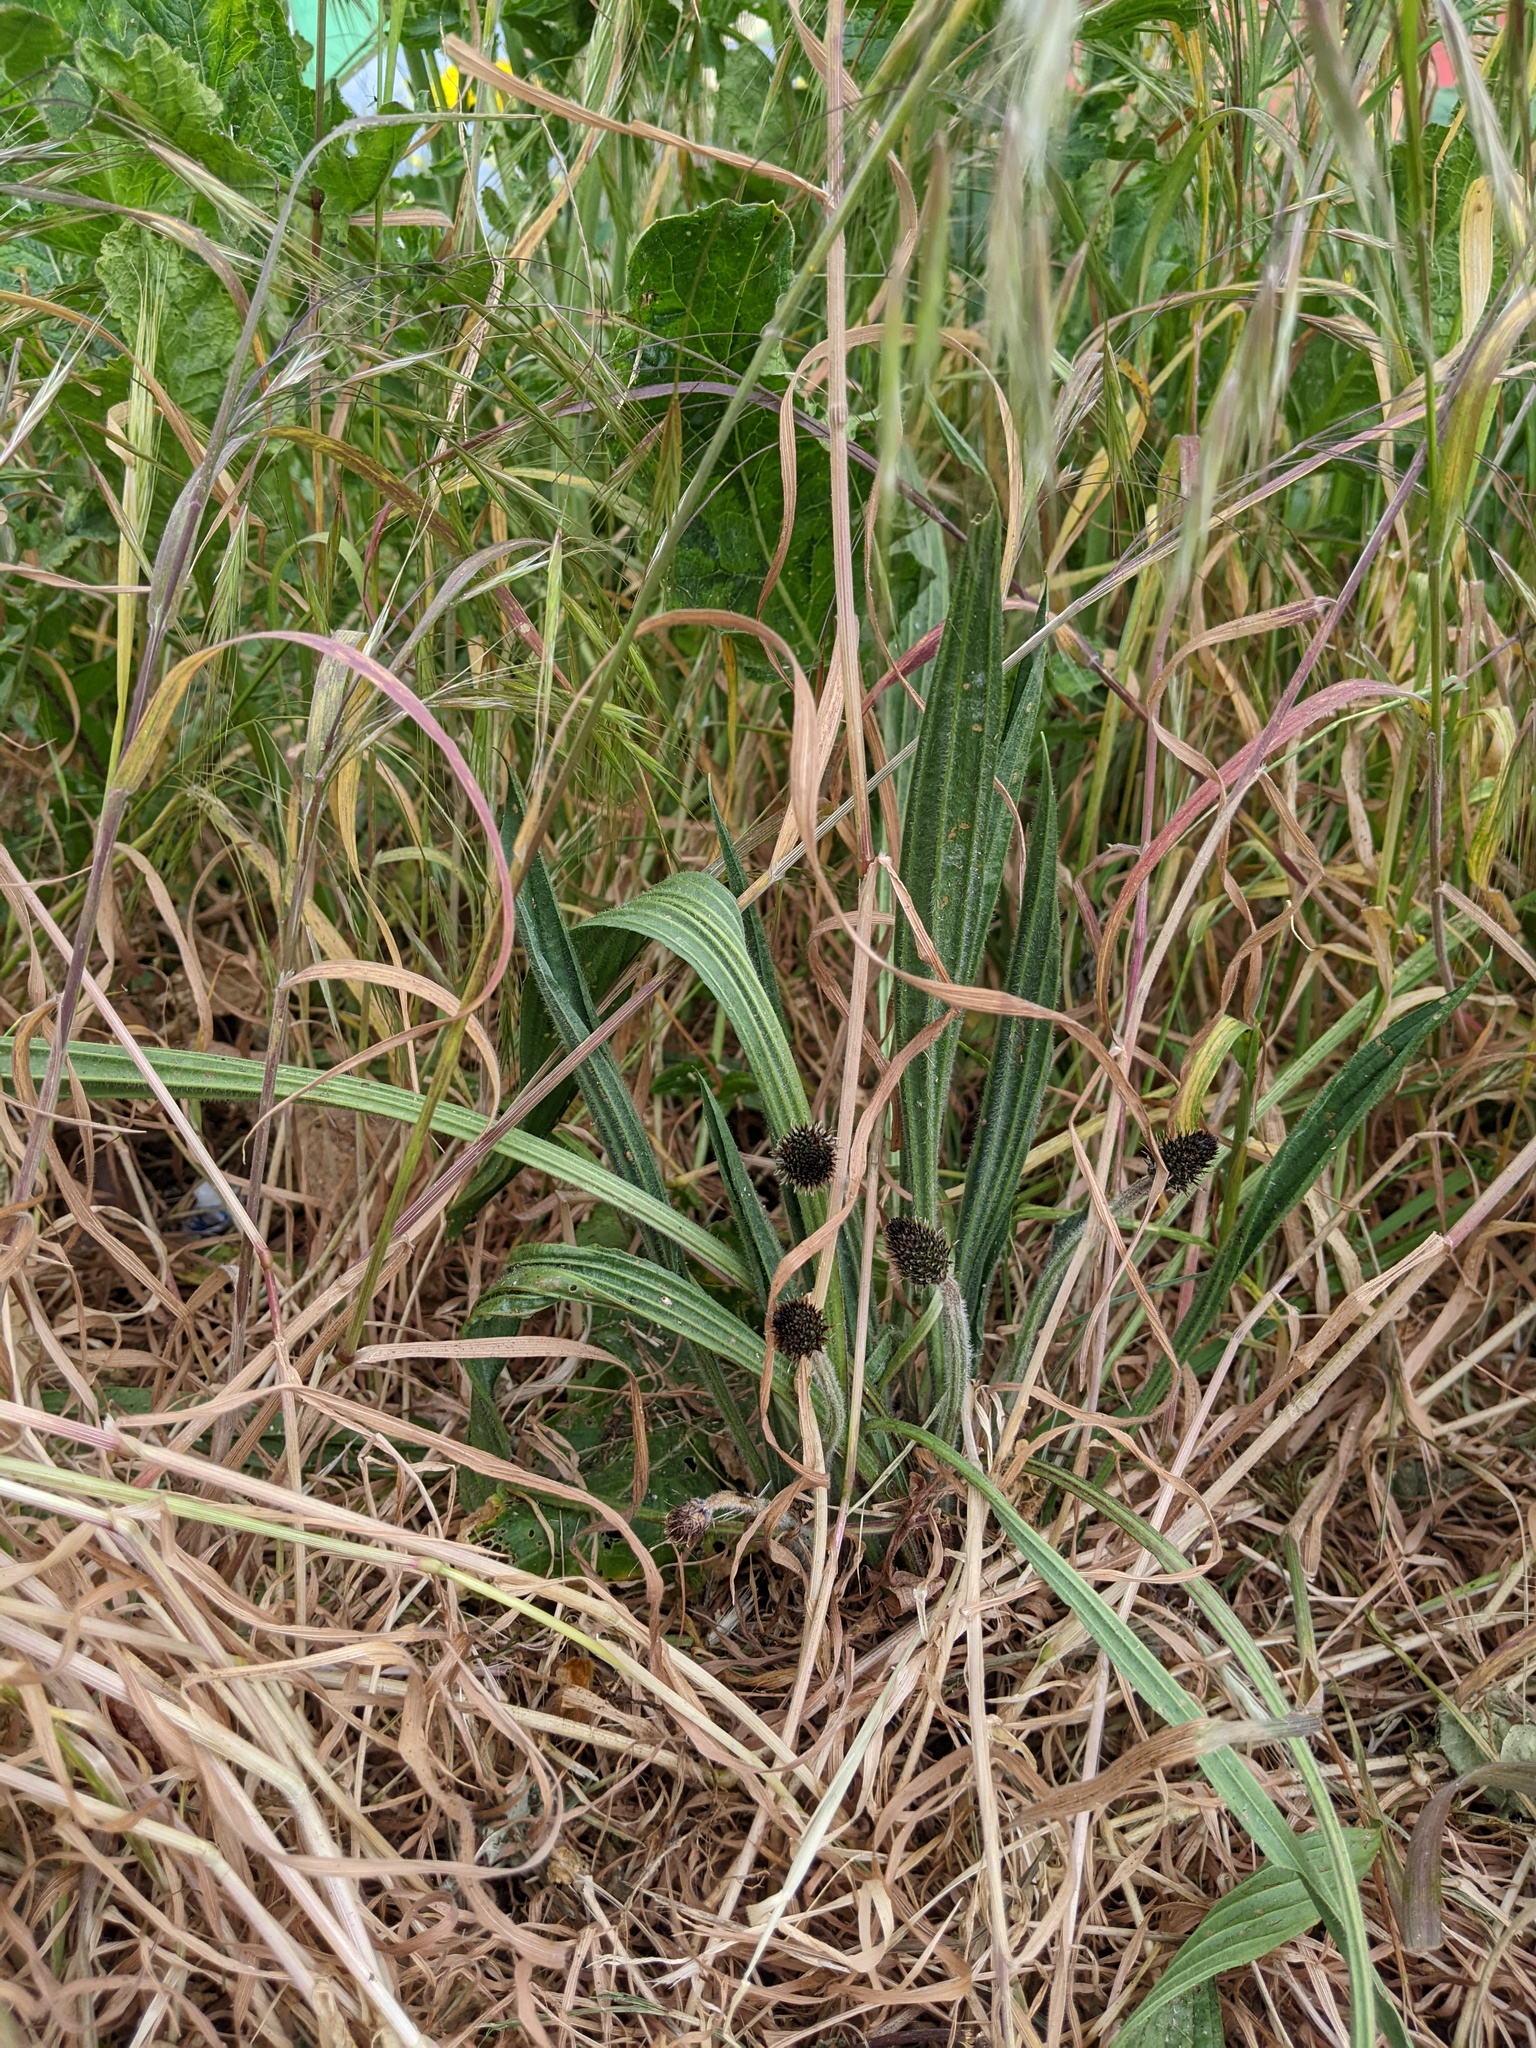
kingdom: Plantae
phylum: Tracheophyta
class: Magnoliopsida
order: Lamiales
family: Plantaginaceae
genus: Plantago
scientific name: Plantago lanceolata
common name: Ribwort plantain
